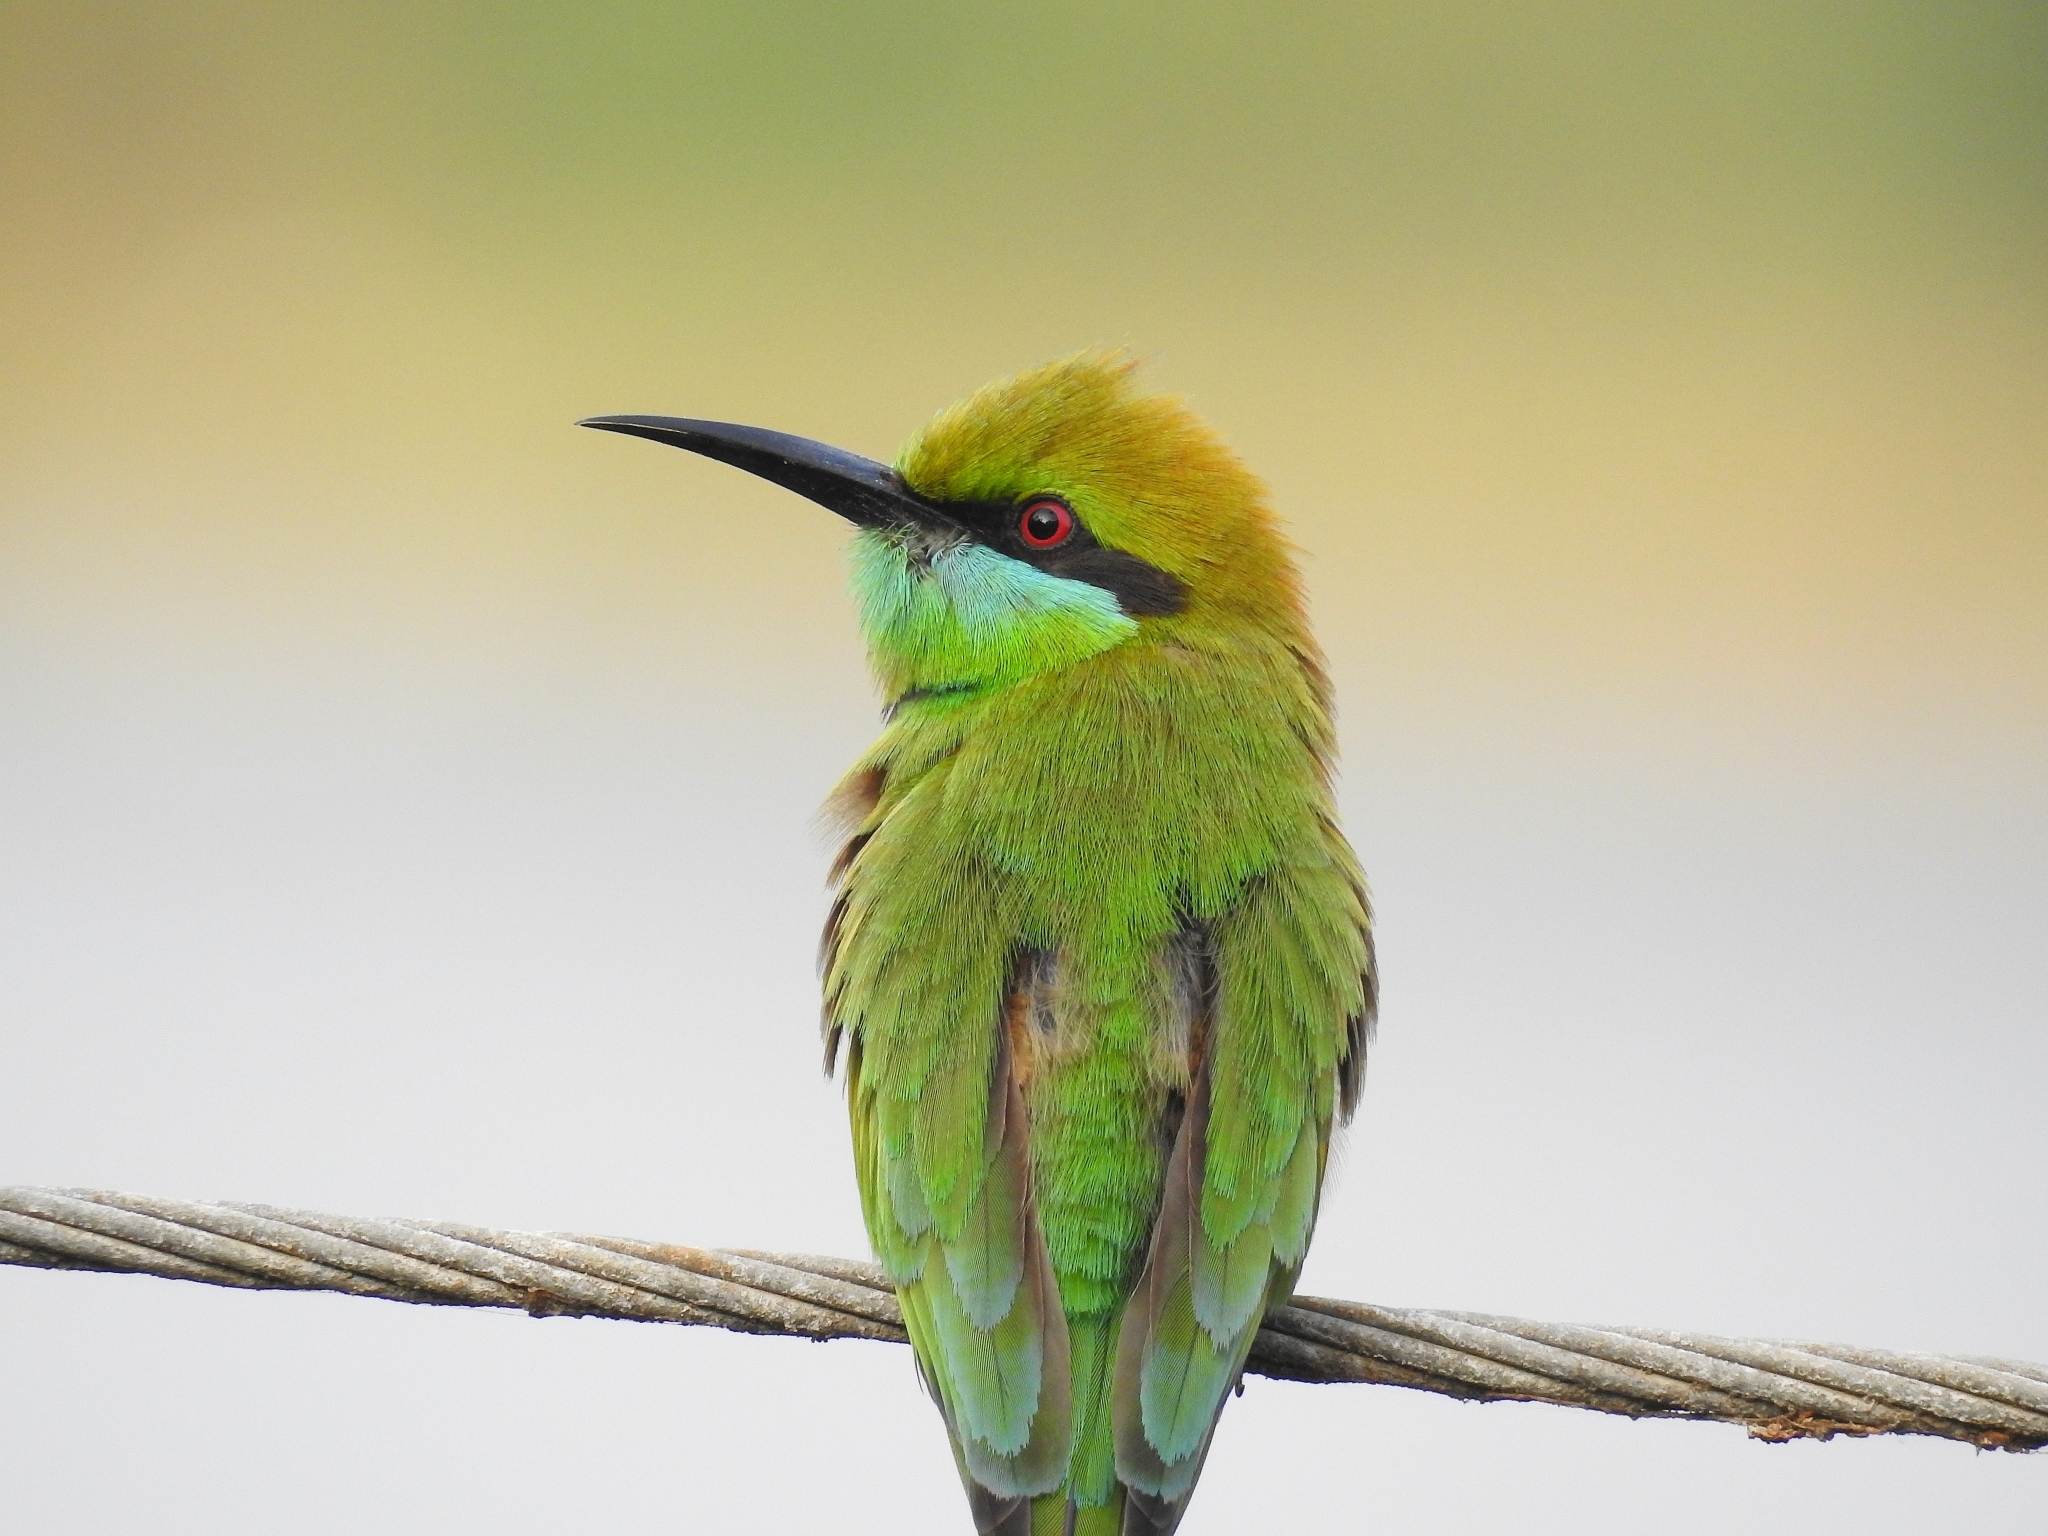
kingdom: Animalia
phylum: Chordata
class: Aves
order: Coraciiformes
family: Meropidae
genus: Merops
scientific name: Merops orientalis
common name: Green bee-eater
